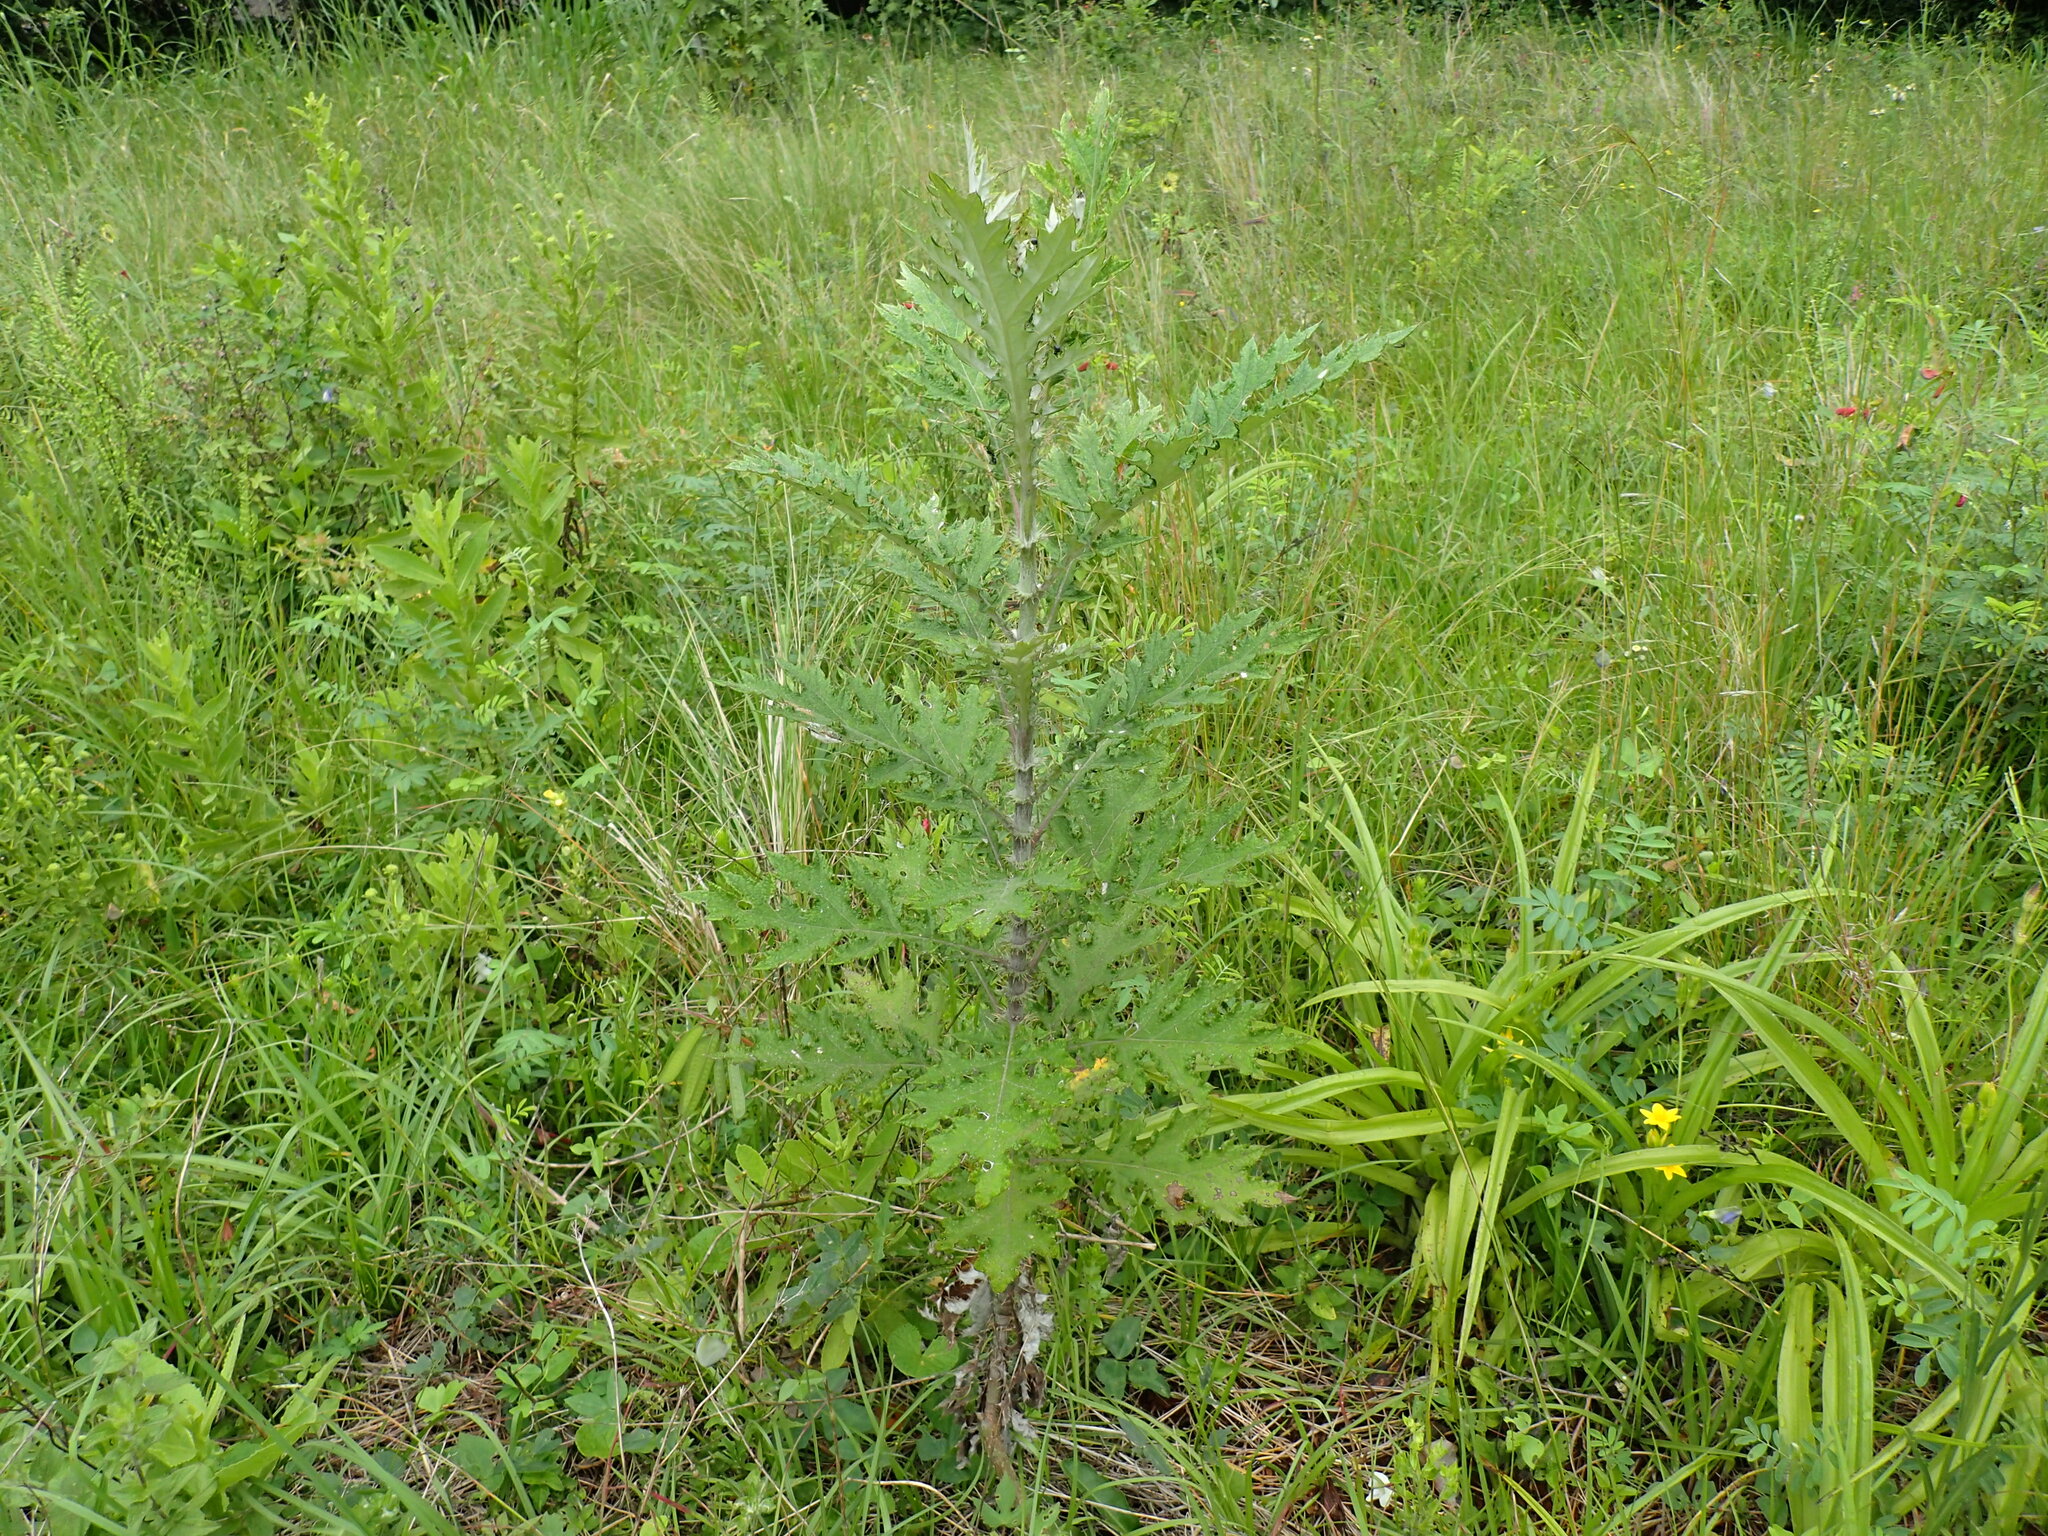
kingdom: Plantae
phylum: Tracheophyta
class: Magnoliopsida
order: Asterales
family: Asteraceae
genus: Berkheya
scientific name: Berkheya bipinnatifida
